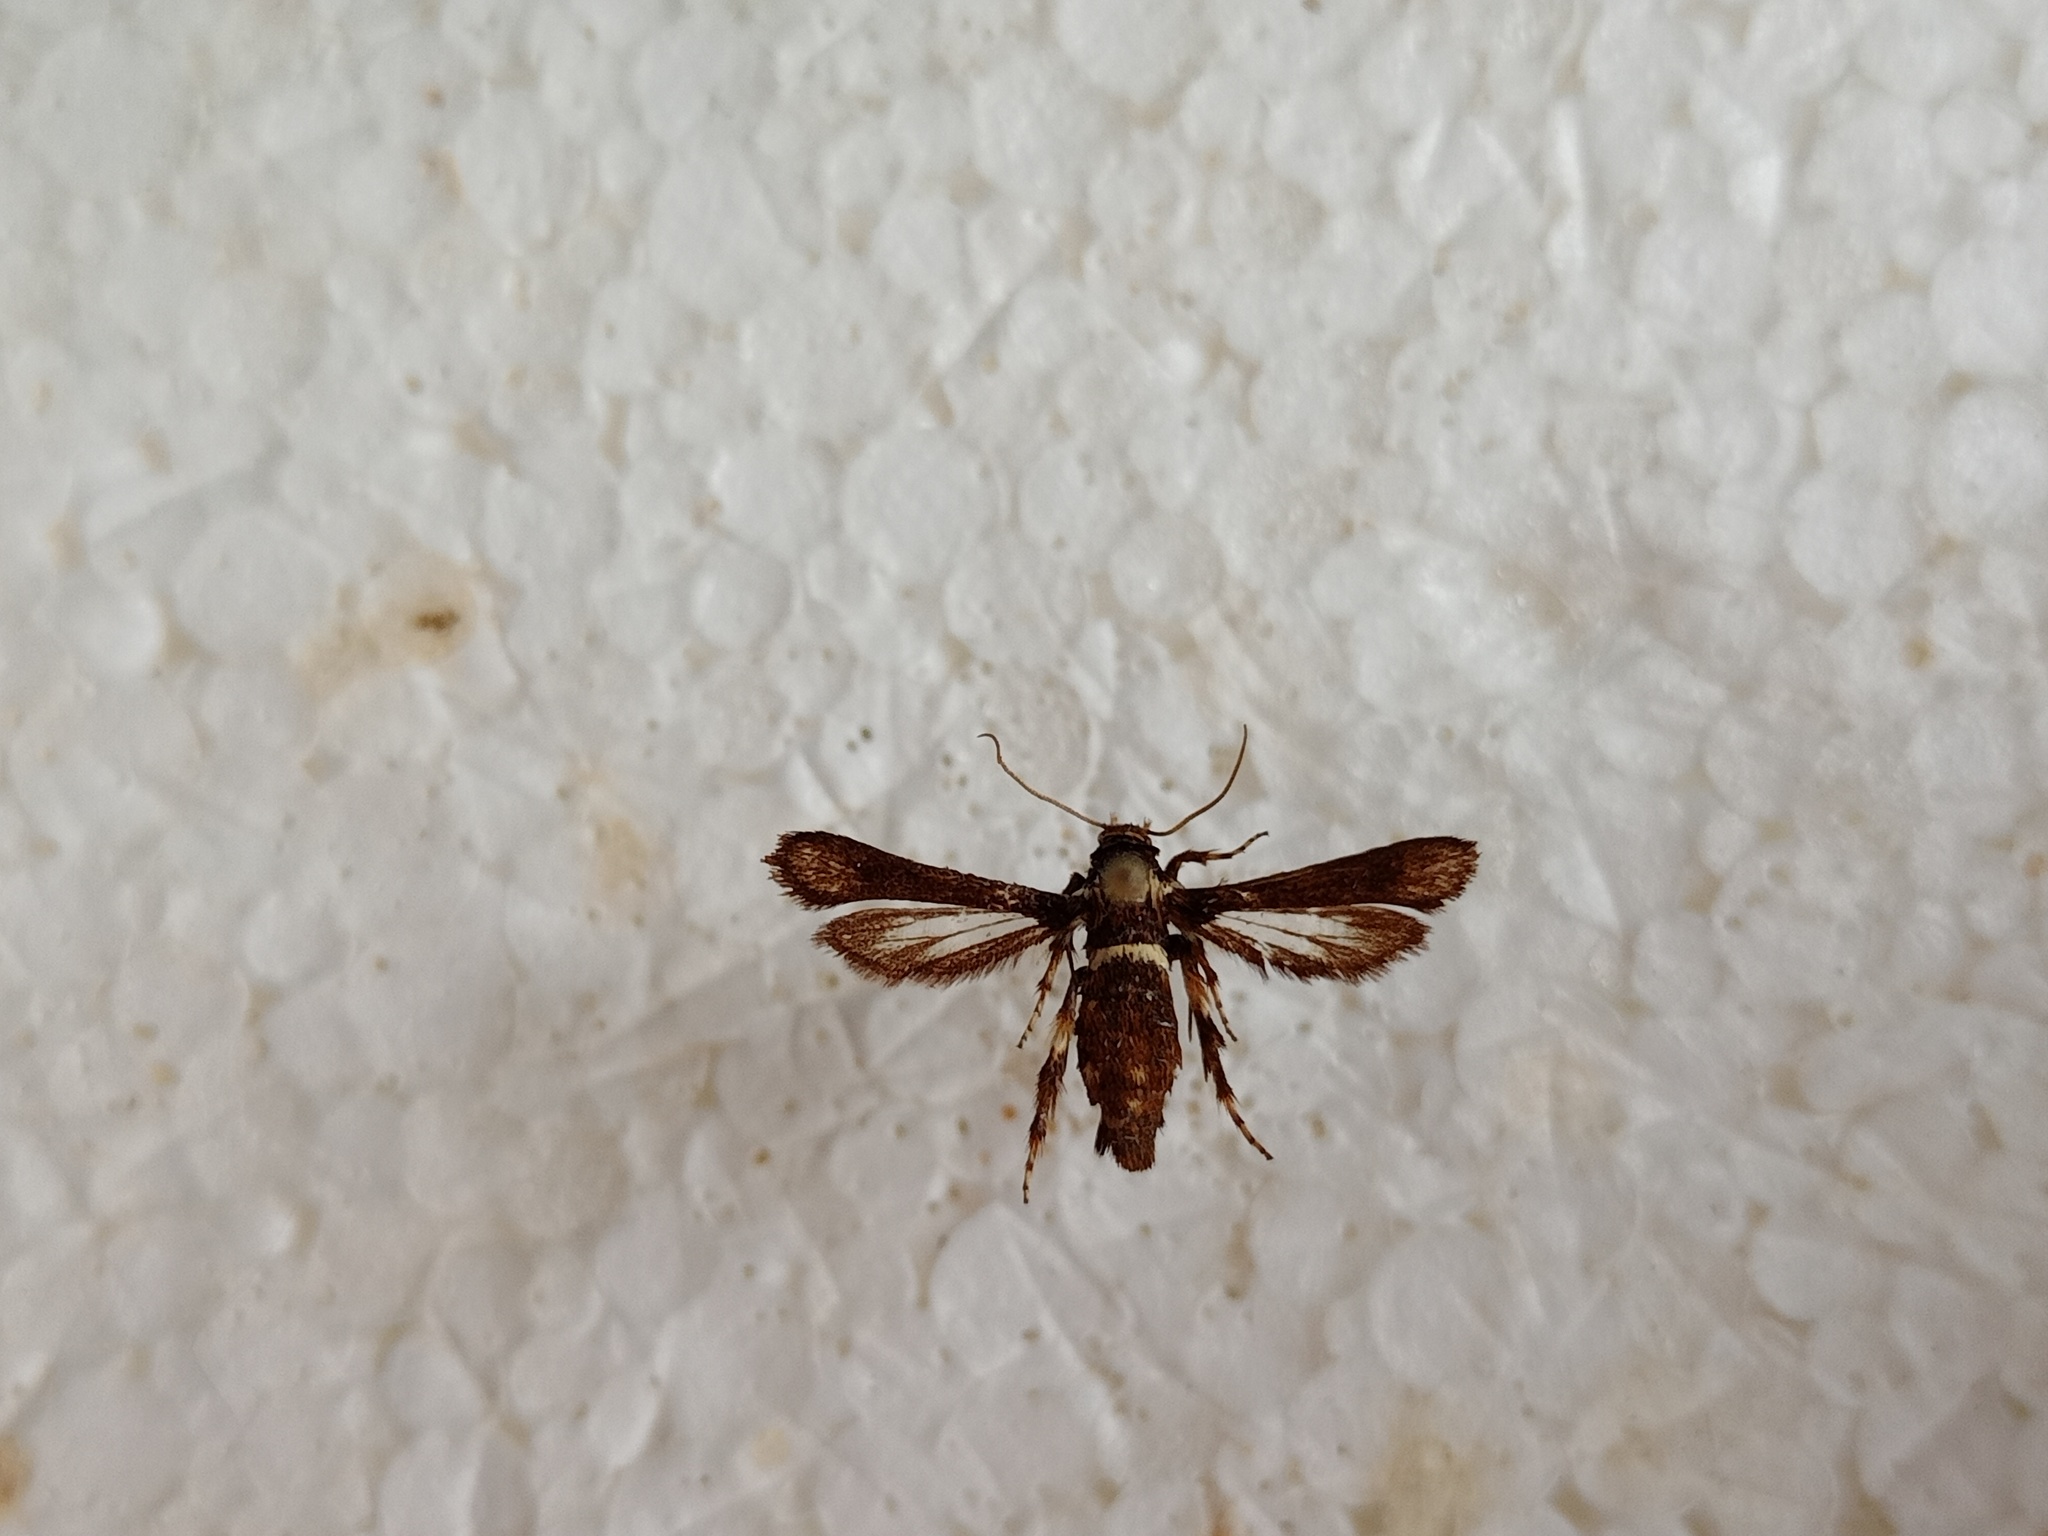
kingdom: Animalia
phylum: Arthropoda
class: Insecta
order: Lepidoptera
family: Sesiidae
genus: Microsphecia
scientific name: Microsphecia brosiformis
